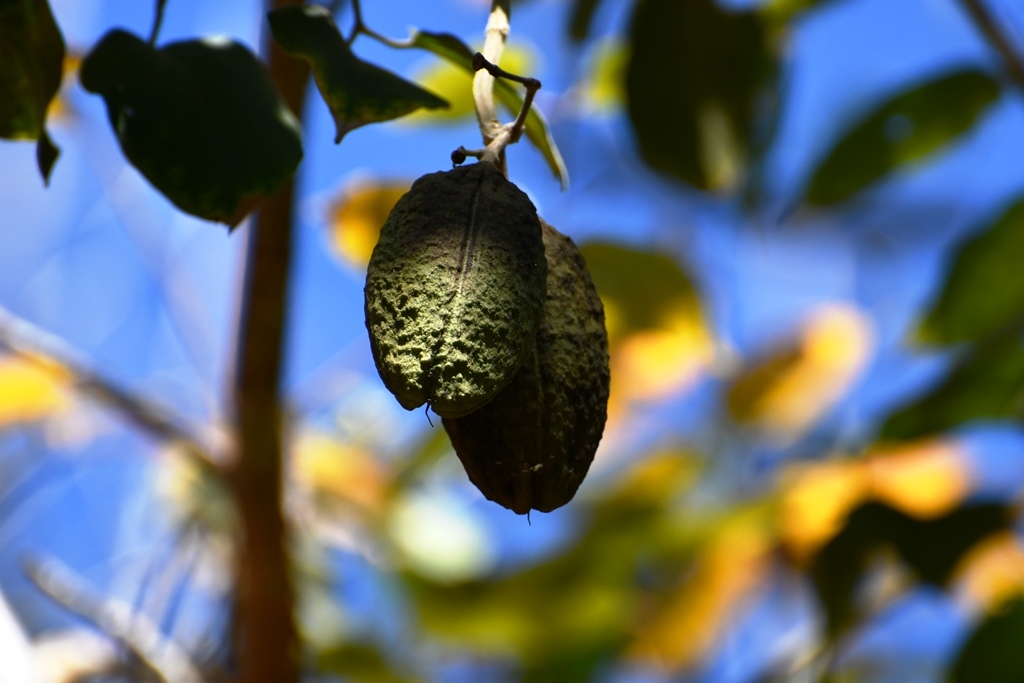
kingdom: Plantae
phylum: Tracheophyta
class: Magnoliopsida
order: Lamiales
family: Bignoniaceae
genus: Amphilophium
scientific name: Amphilophium paniculatum
